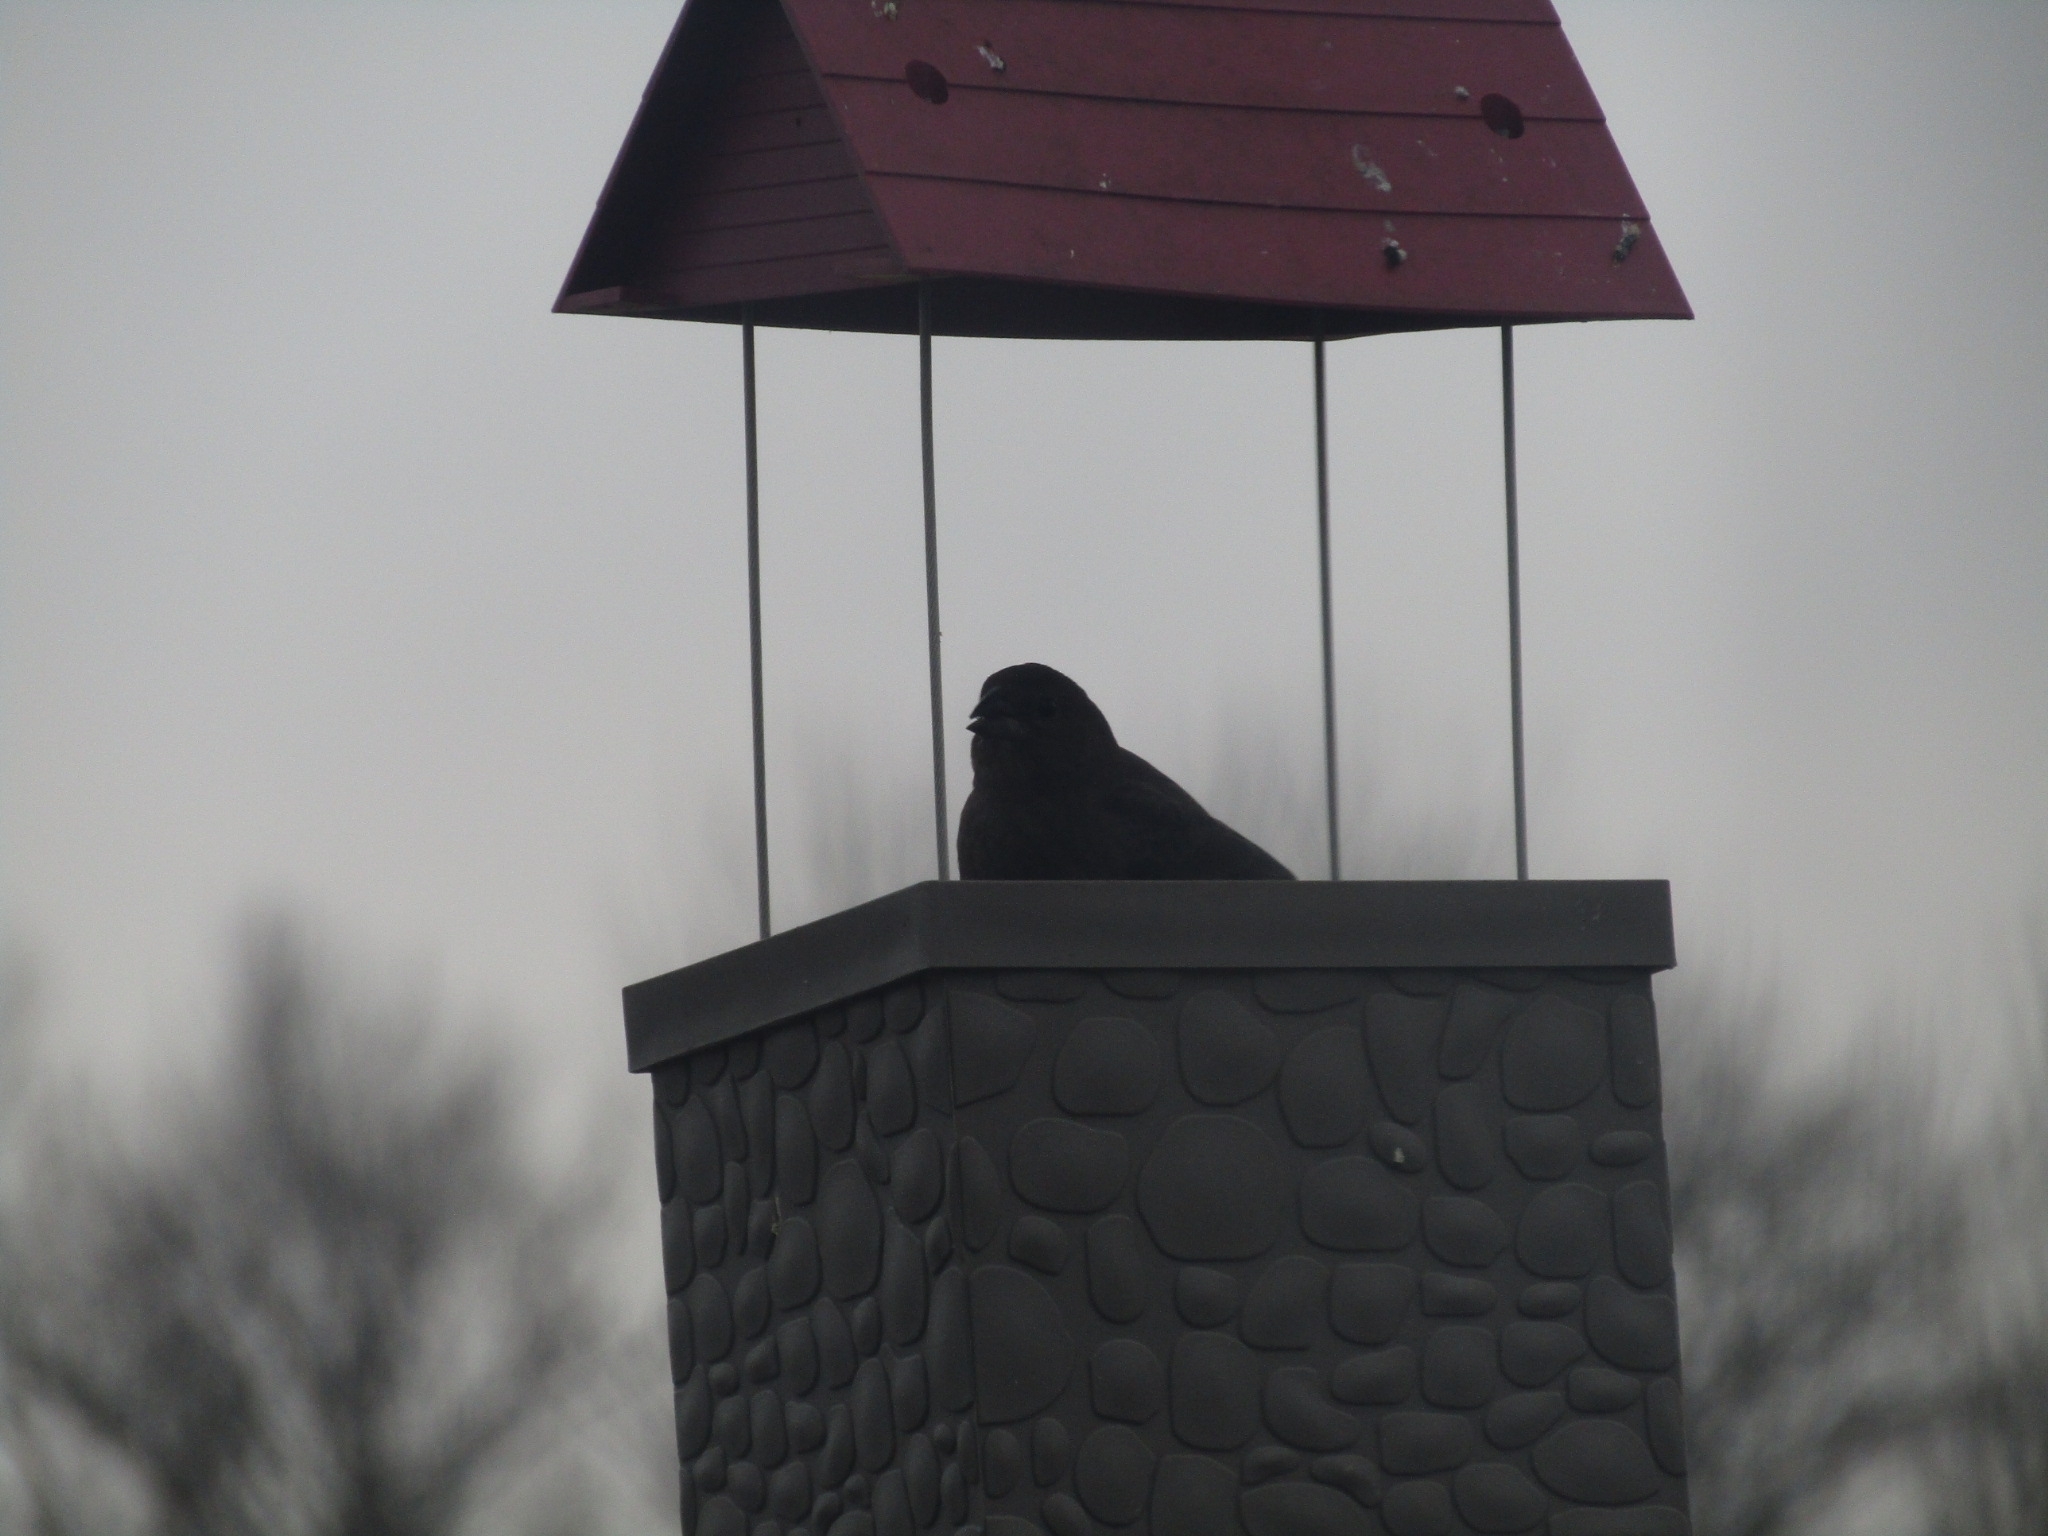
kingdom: Animalia
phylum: Chordata
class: Aves
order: Passeriformes
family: Icteridae
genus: Molothrus
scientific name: Molothrus ater
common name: Brown-headed cowbird
